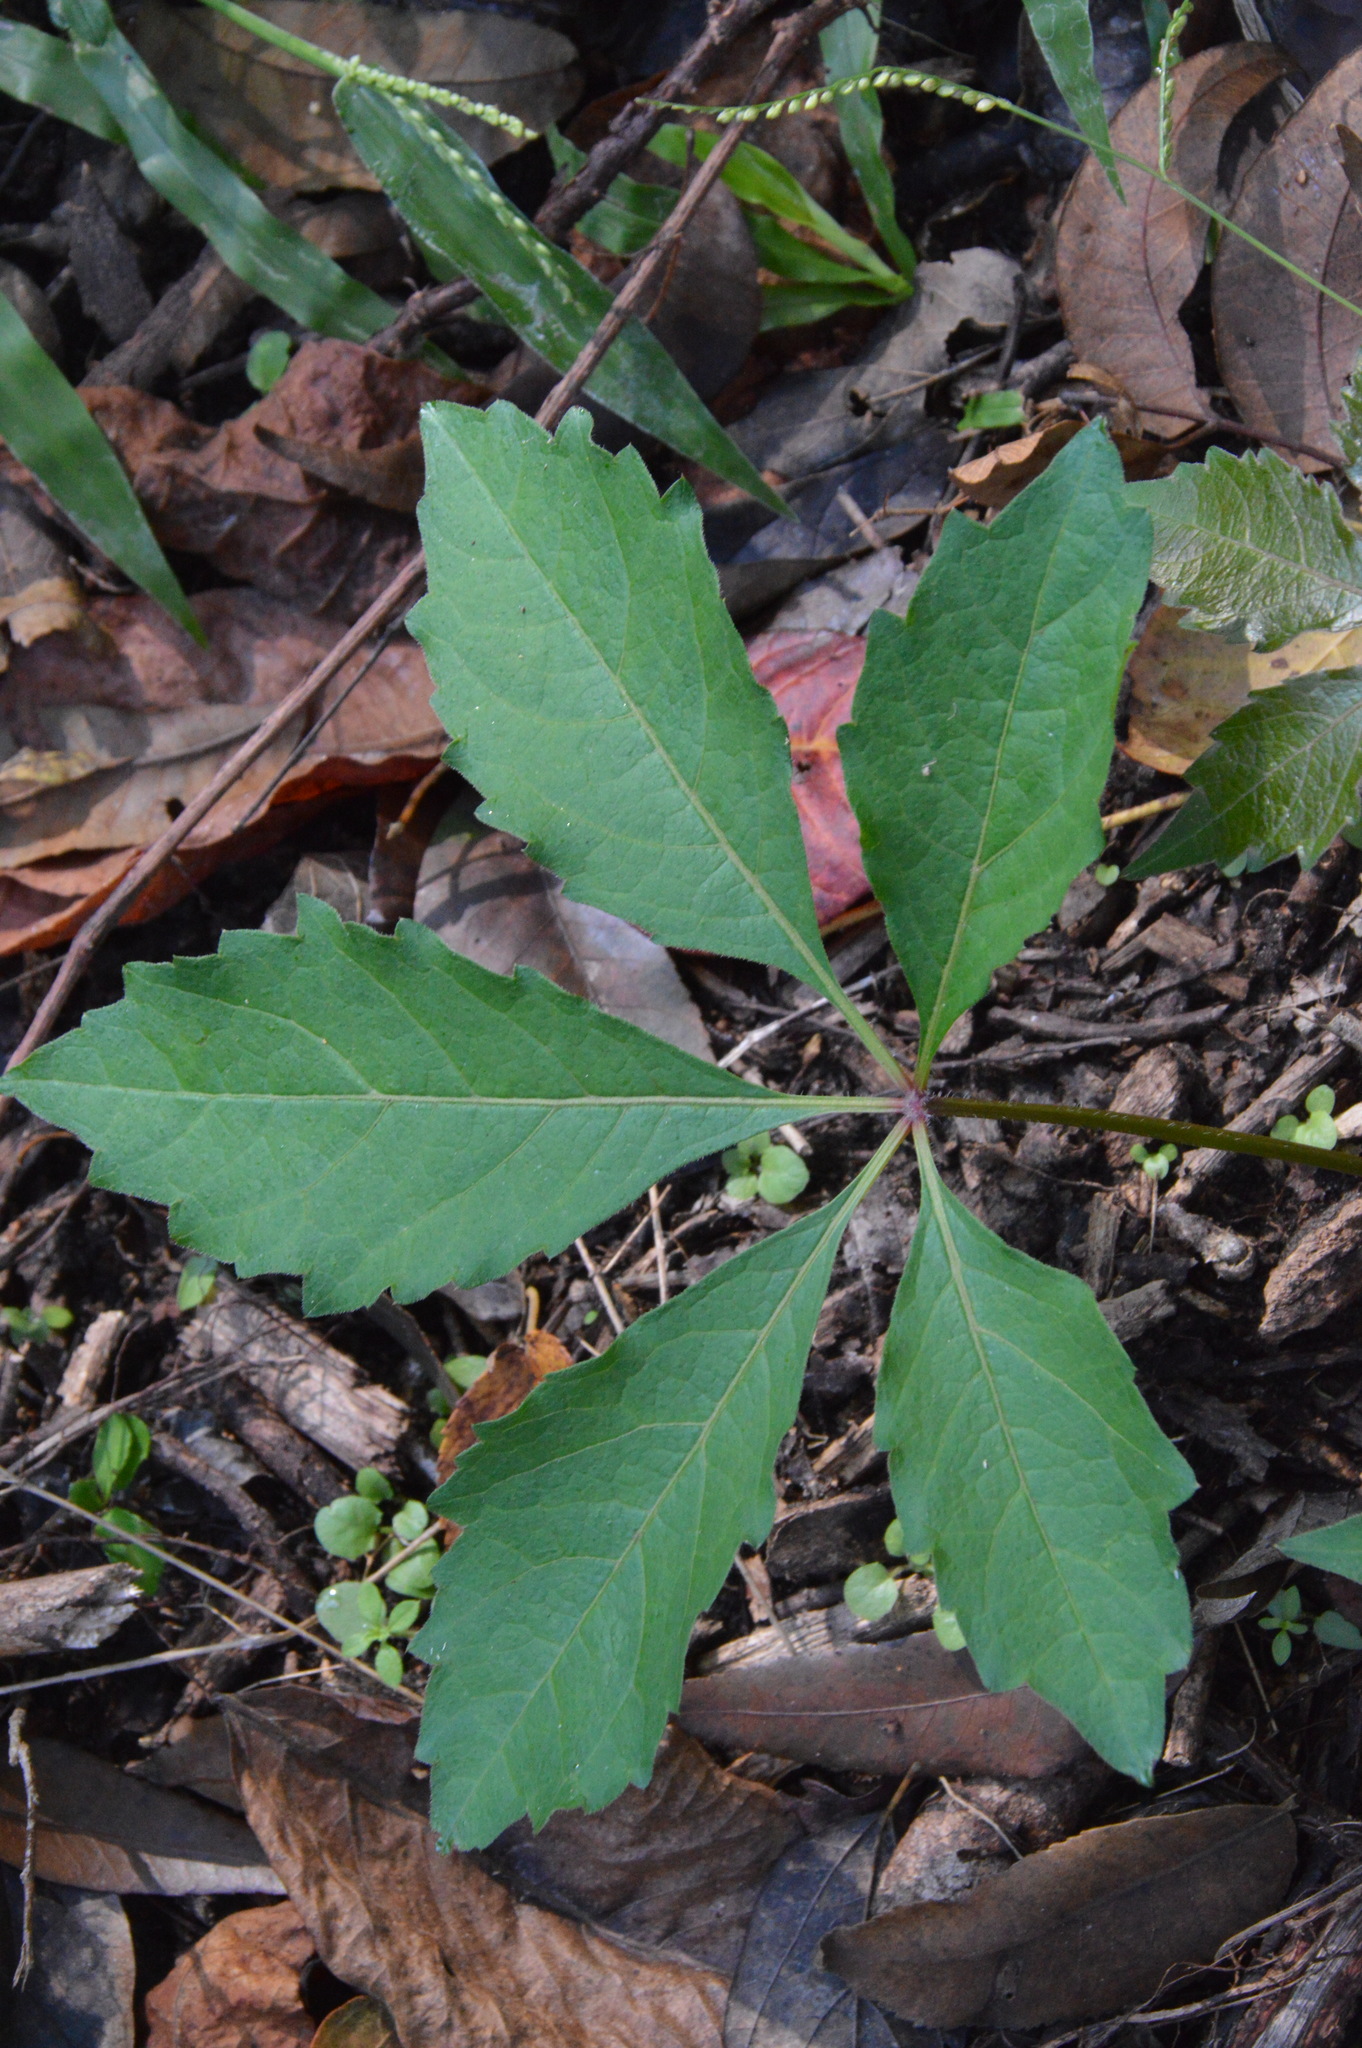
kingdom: Plantae
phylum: Tracheophyta
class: Magnoliopsida
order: Vitales
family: Vitaceae
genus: Parthenocissus
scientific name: Parthenocissus quinquefolia
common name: Virginia-creeper
